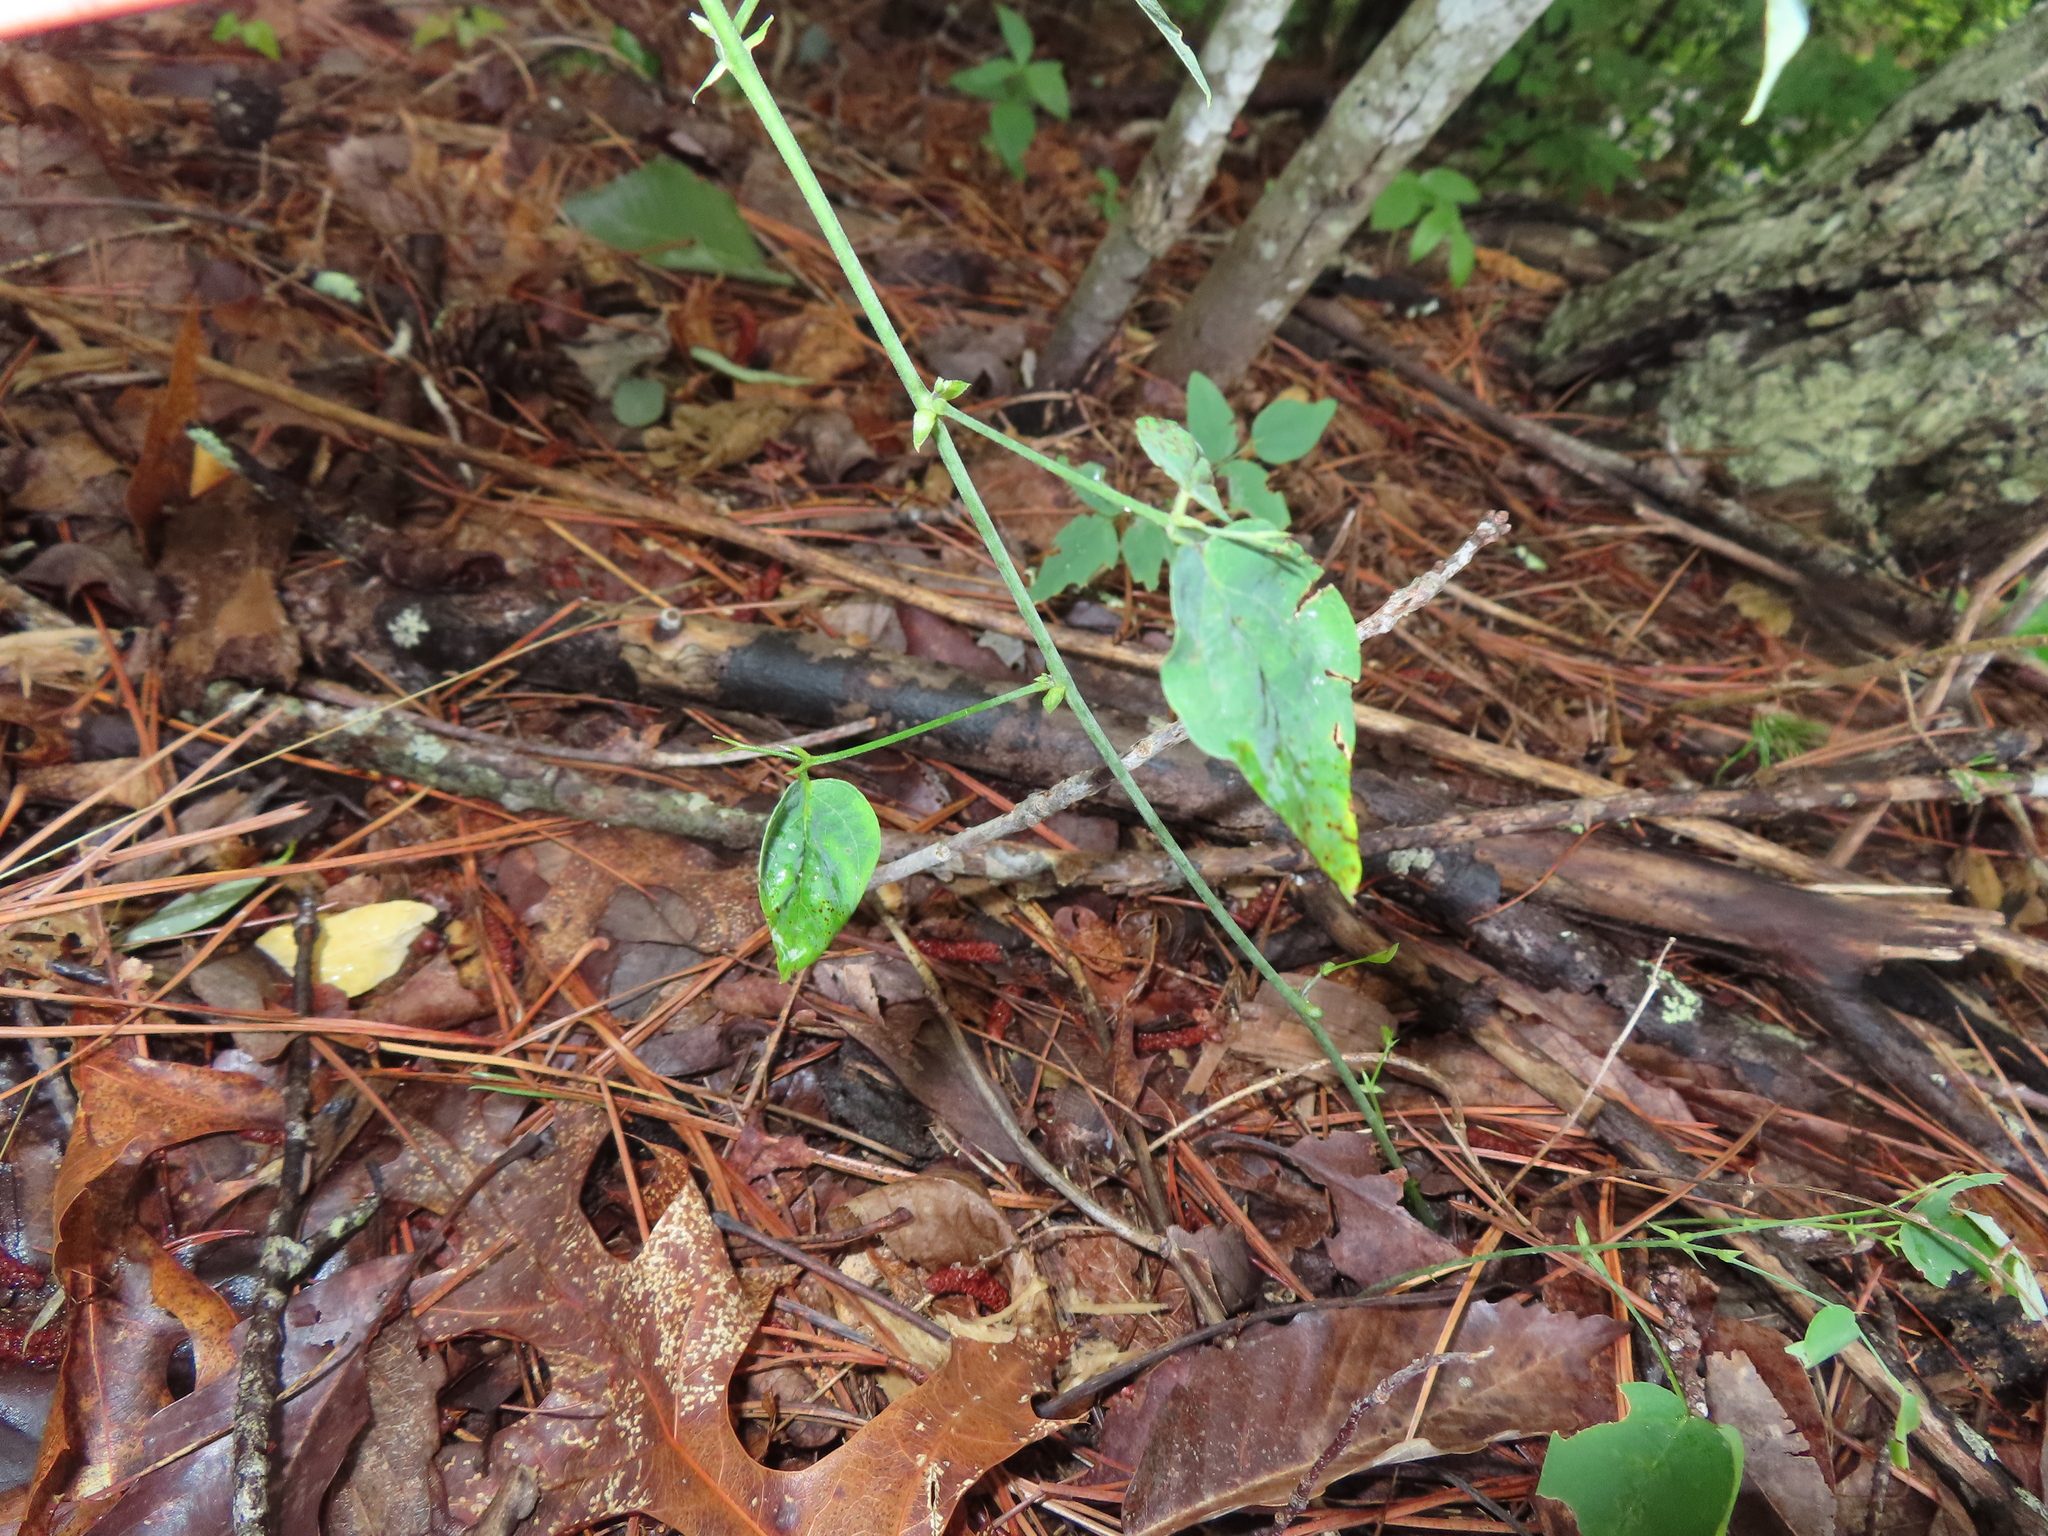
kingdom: Plantae
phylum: Tracheophyta
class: Magnoliopsida
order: Fabales
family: Fabaceae
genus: Clitoria
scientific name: Clitoria mariana
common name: Butterfly-pea
